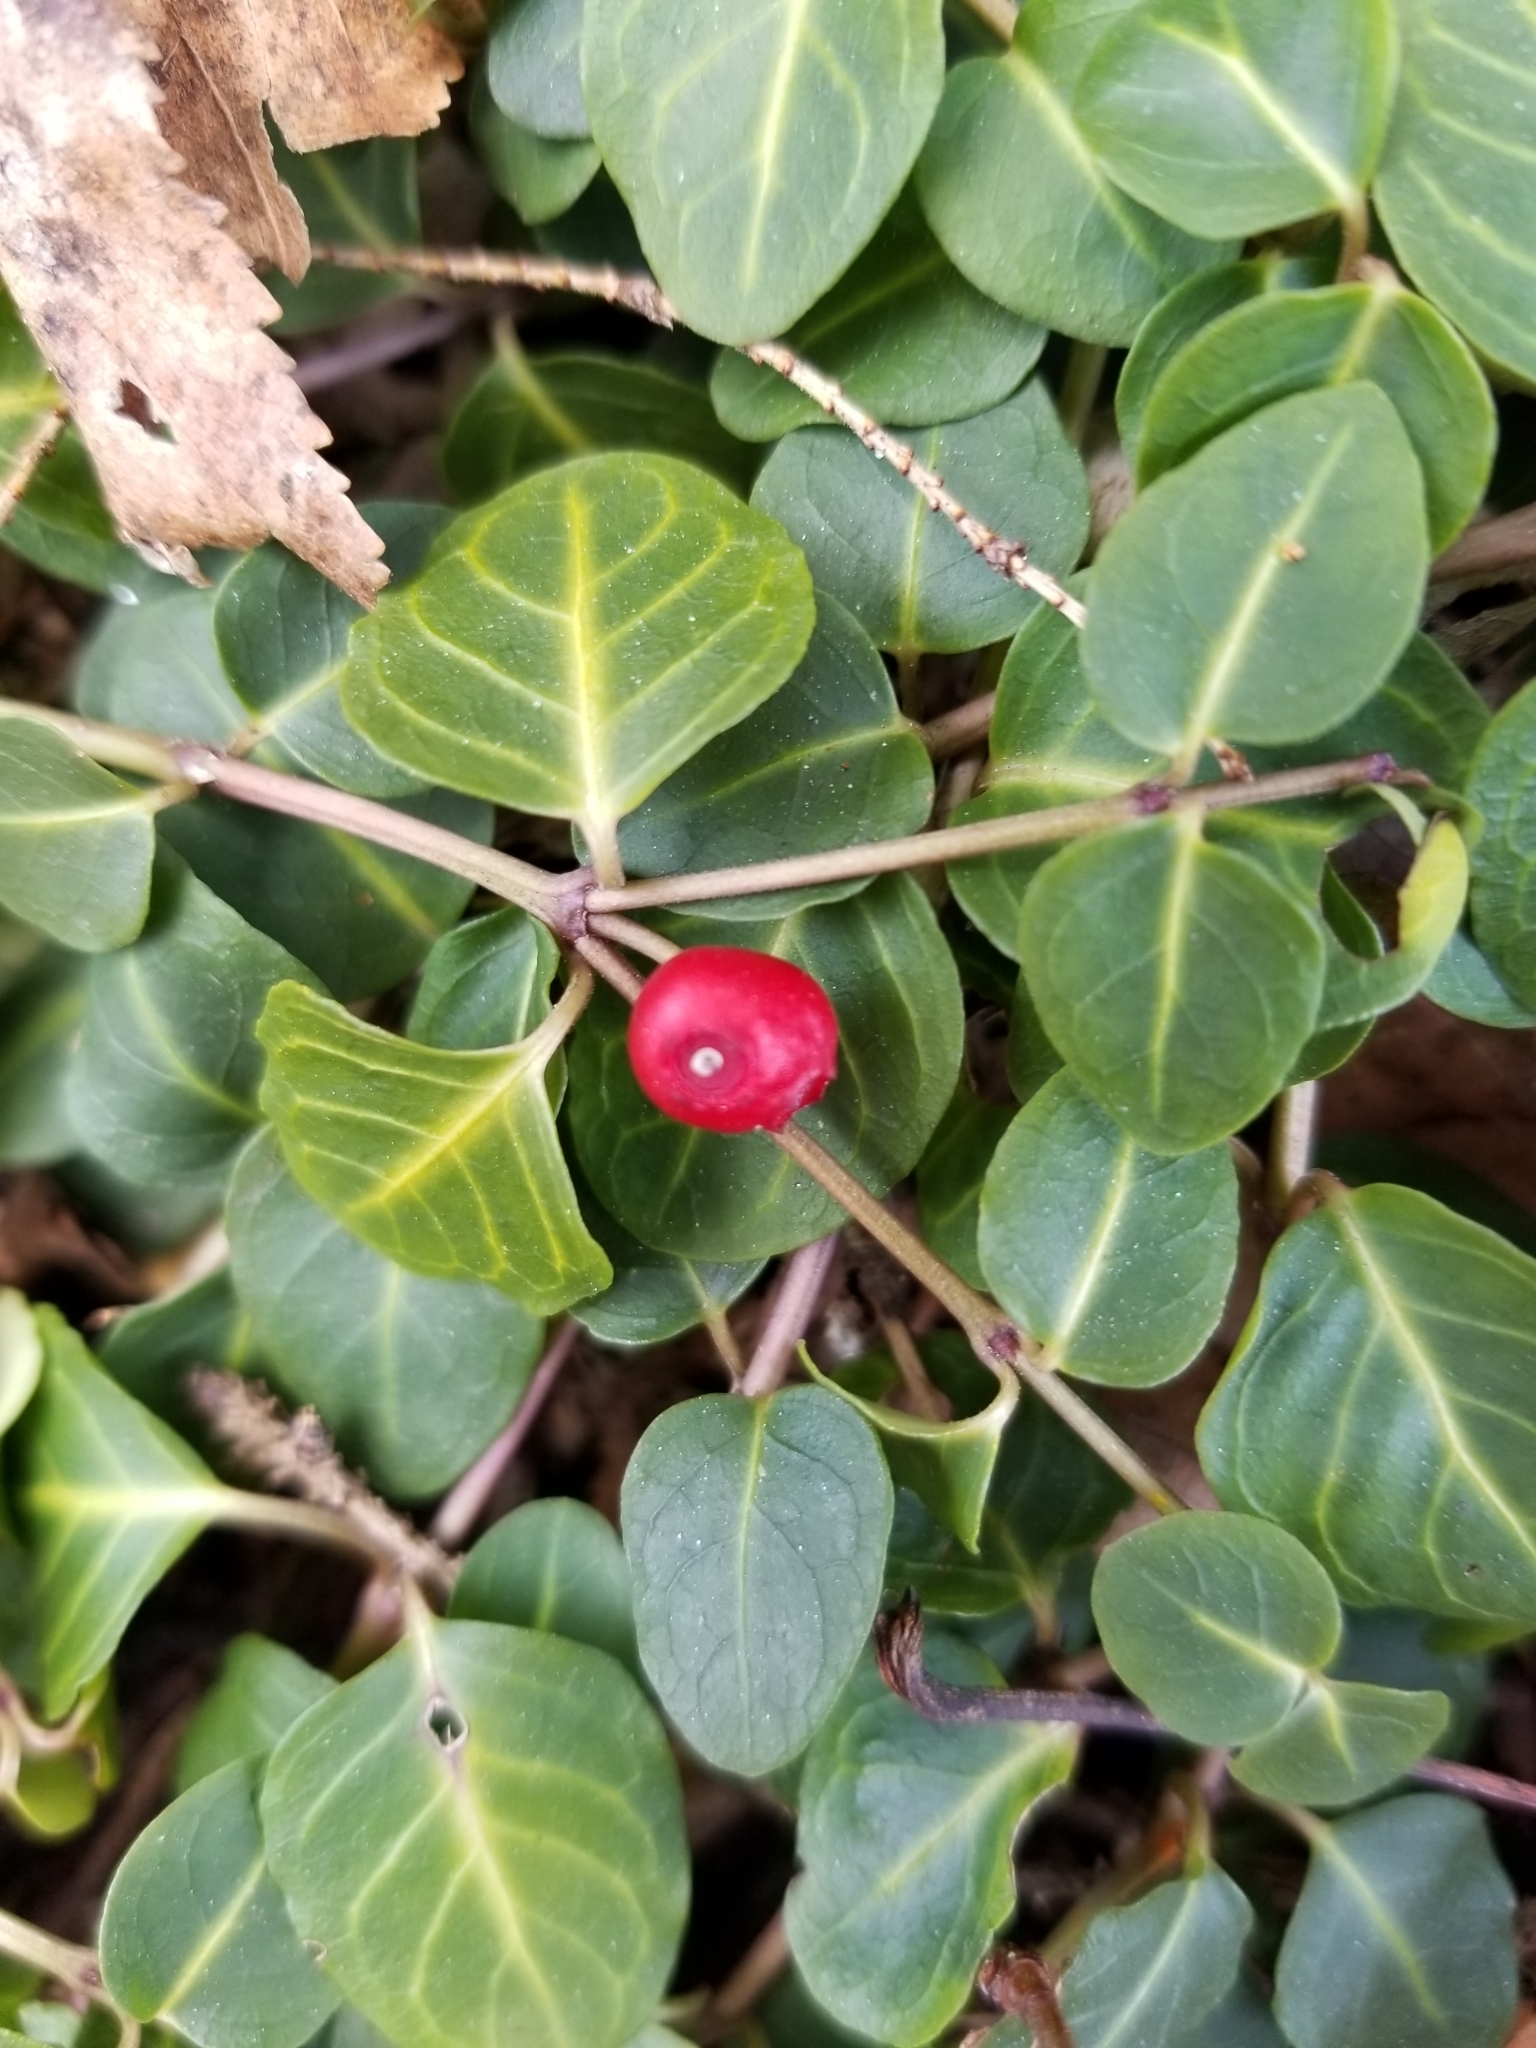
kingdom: Plantae
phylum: Tracheophyta
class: Magnoliopsida
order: Gentianales
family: Rubiaceae
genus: Mitchella
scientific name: Mitchella repens
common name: Partridge-berry
